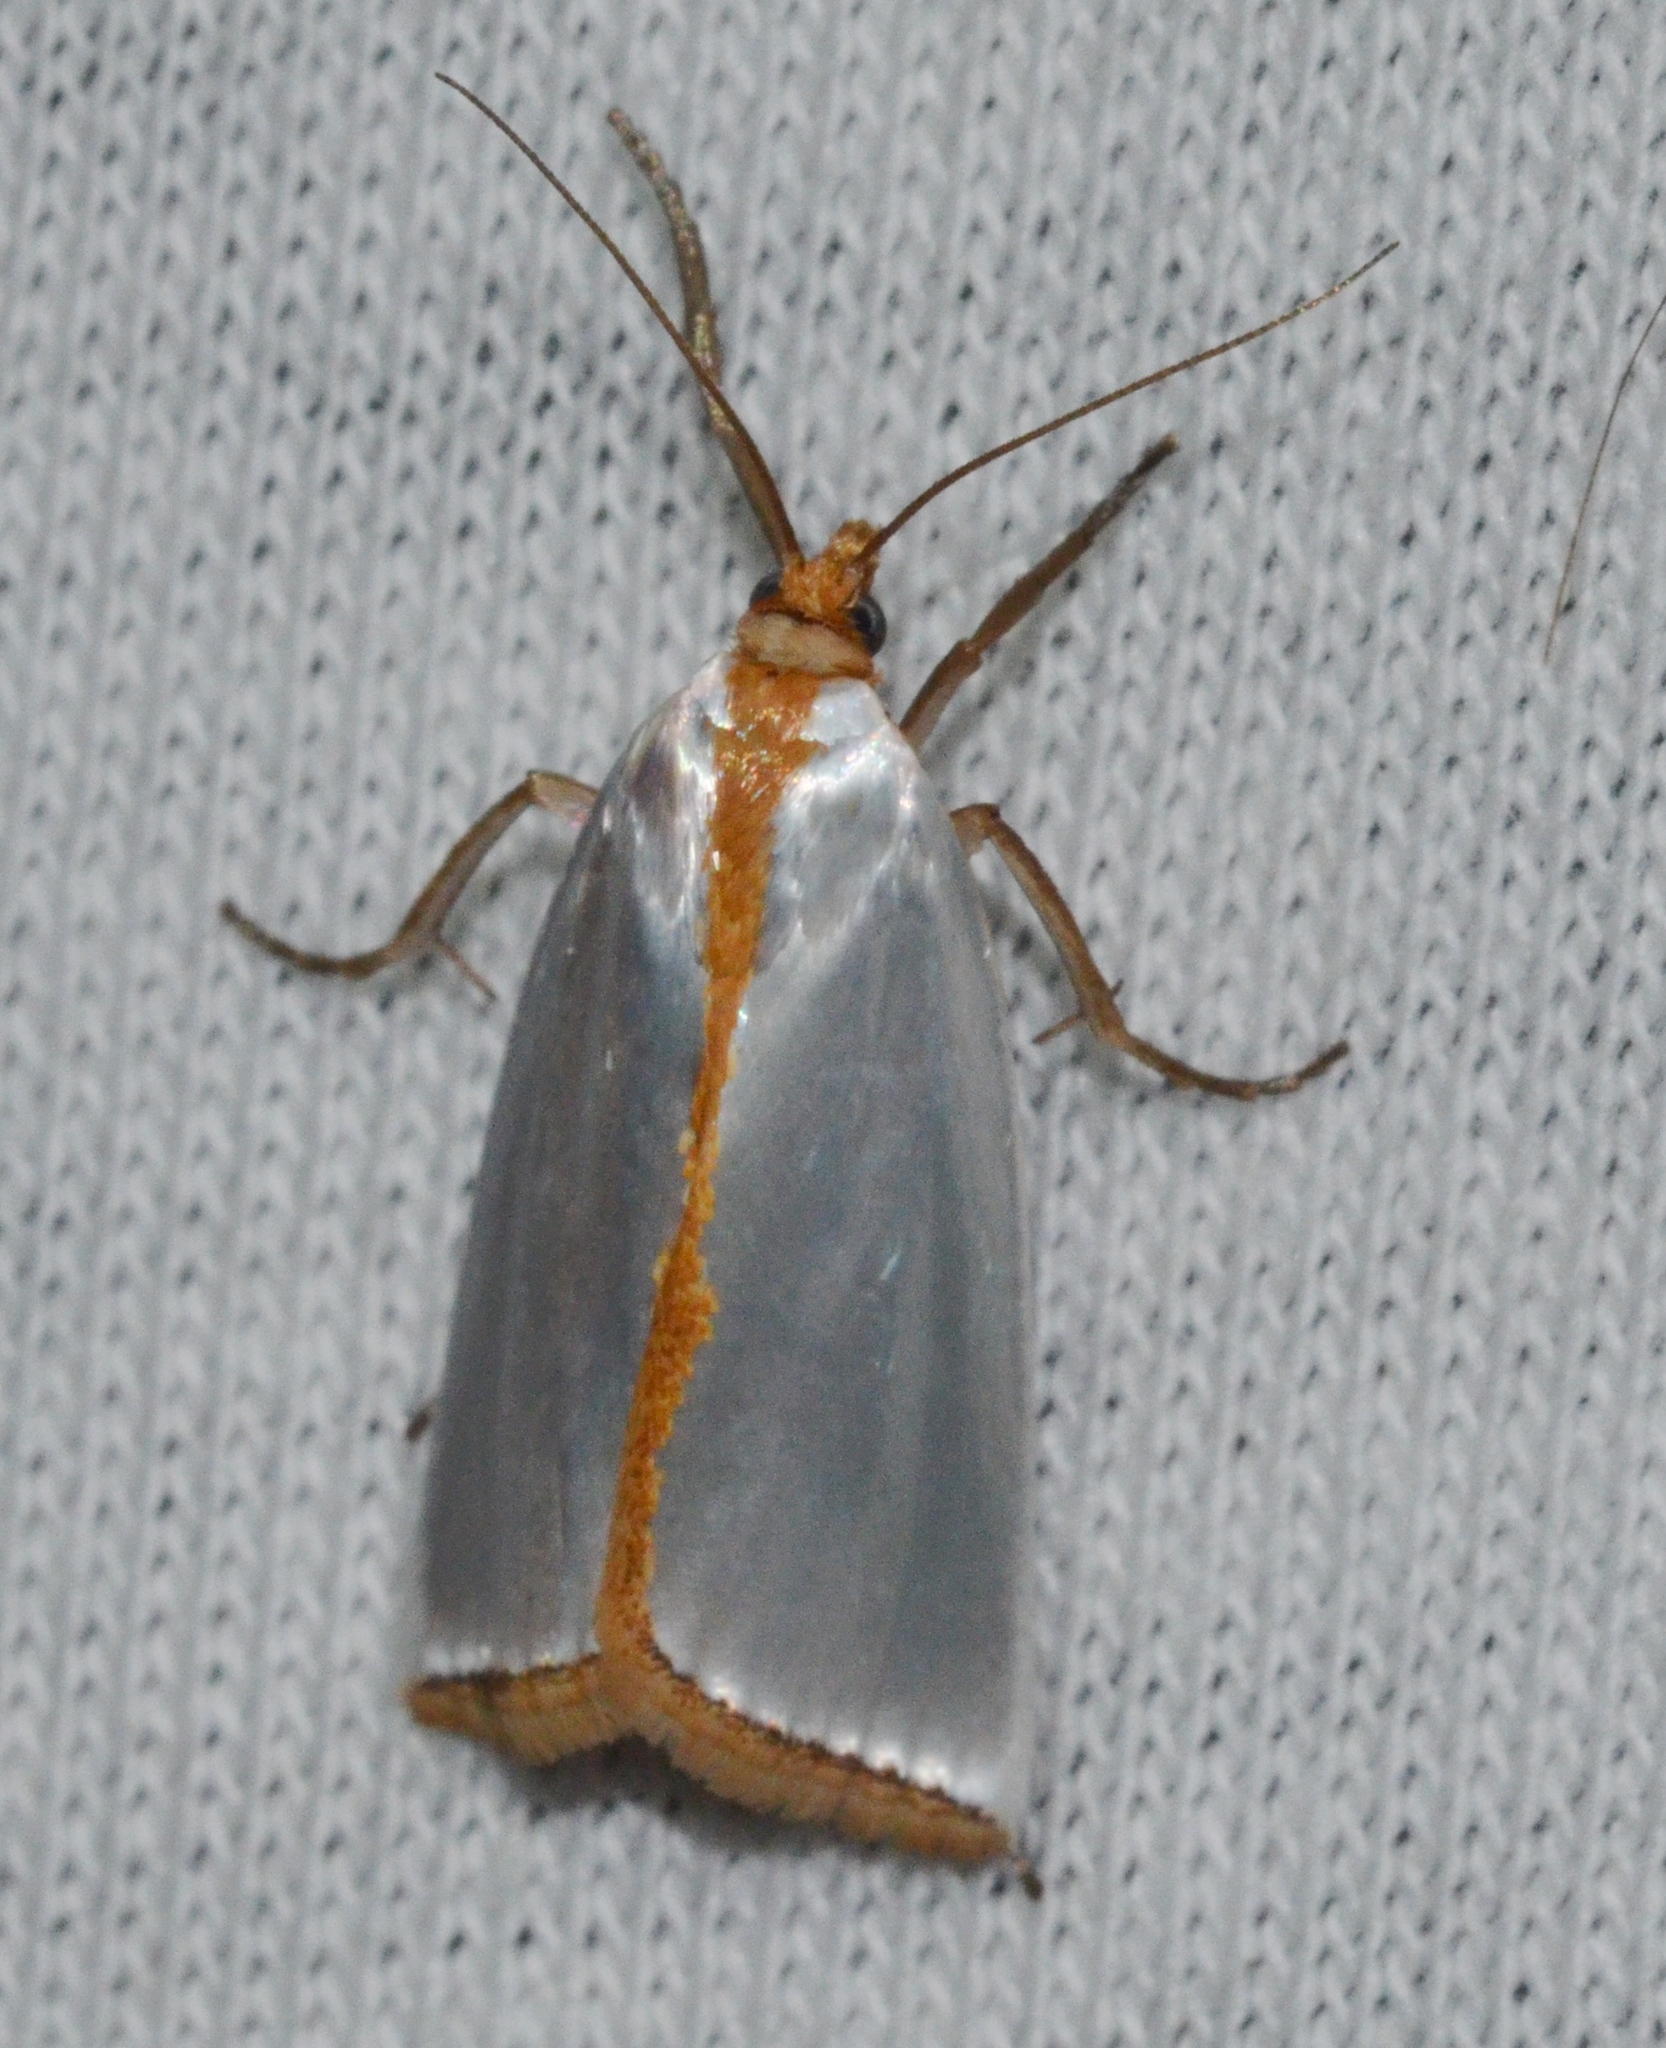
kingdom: Animalia
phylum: Arthropoda
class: Insecta
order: Lepidoptera
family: Crambidae
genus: Argyria
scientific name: Argyria
